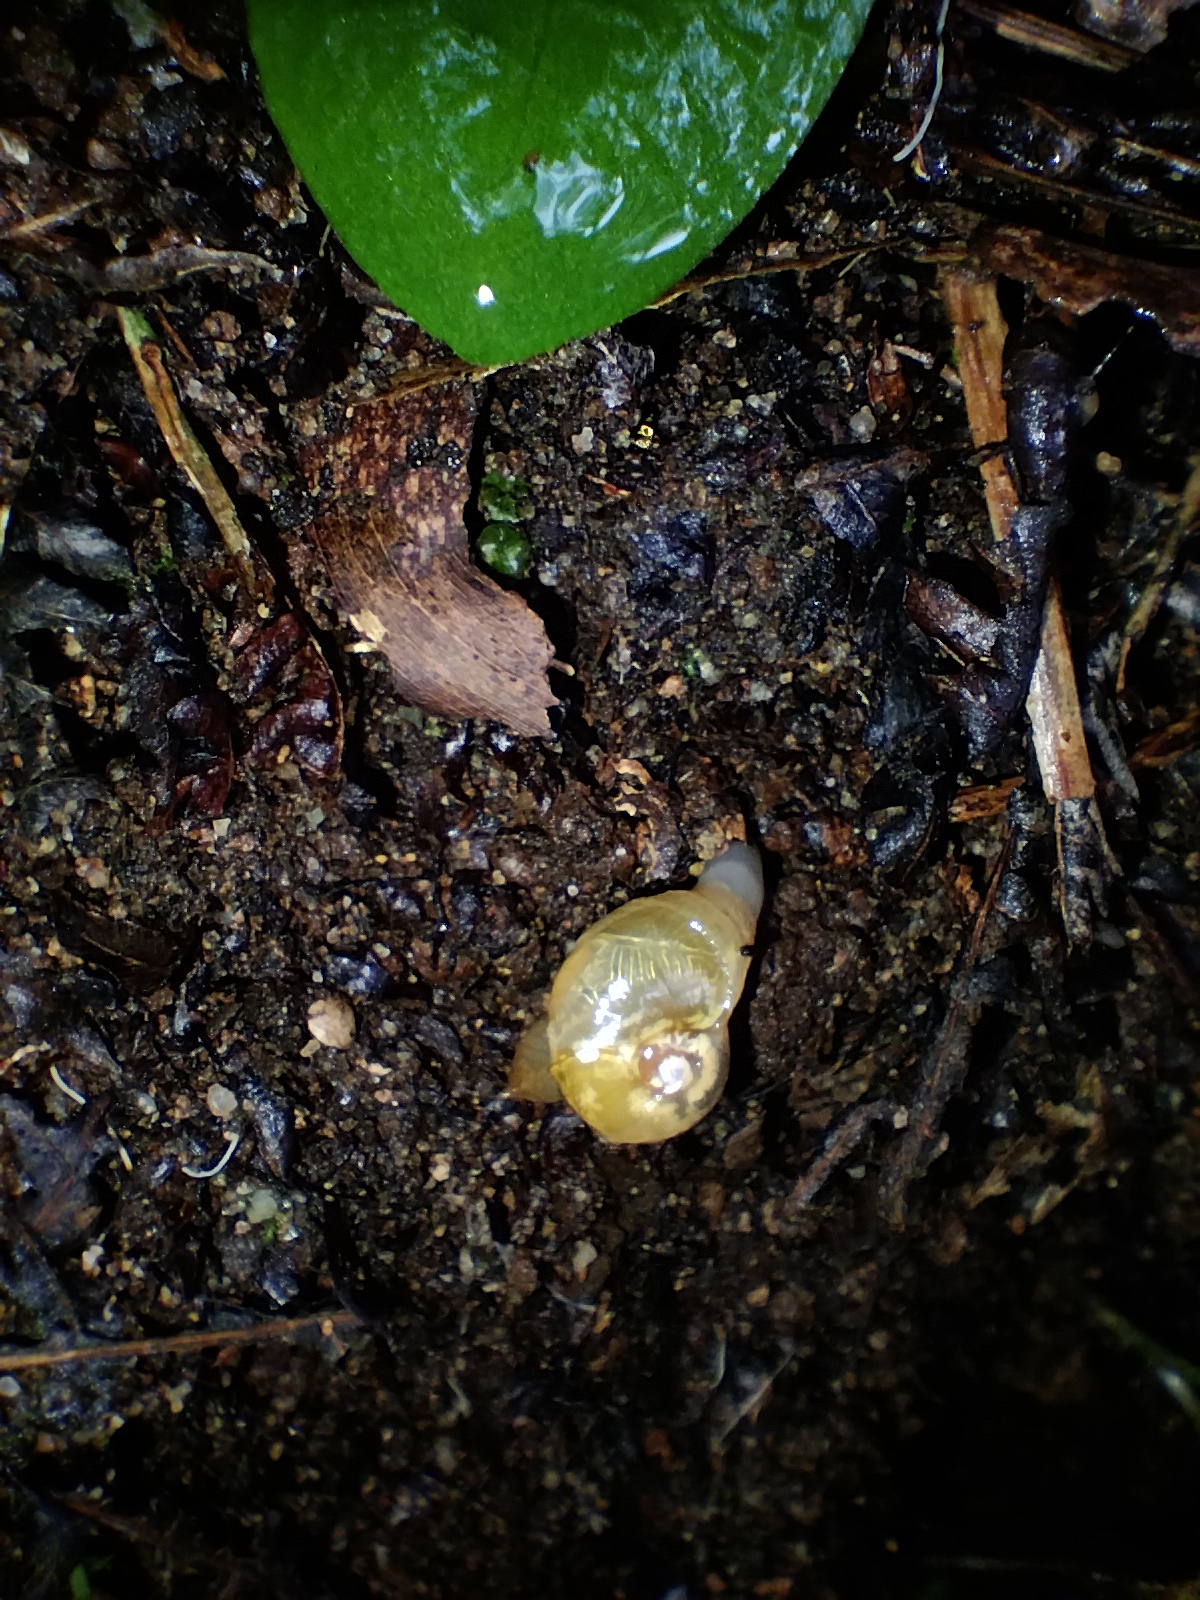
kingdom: Animalia
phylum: Mollusca
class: Gastropoda
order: Stylommatophora
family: Helicarionidae
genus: Mysticarion
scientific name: Mysticarion porrectus
